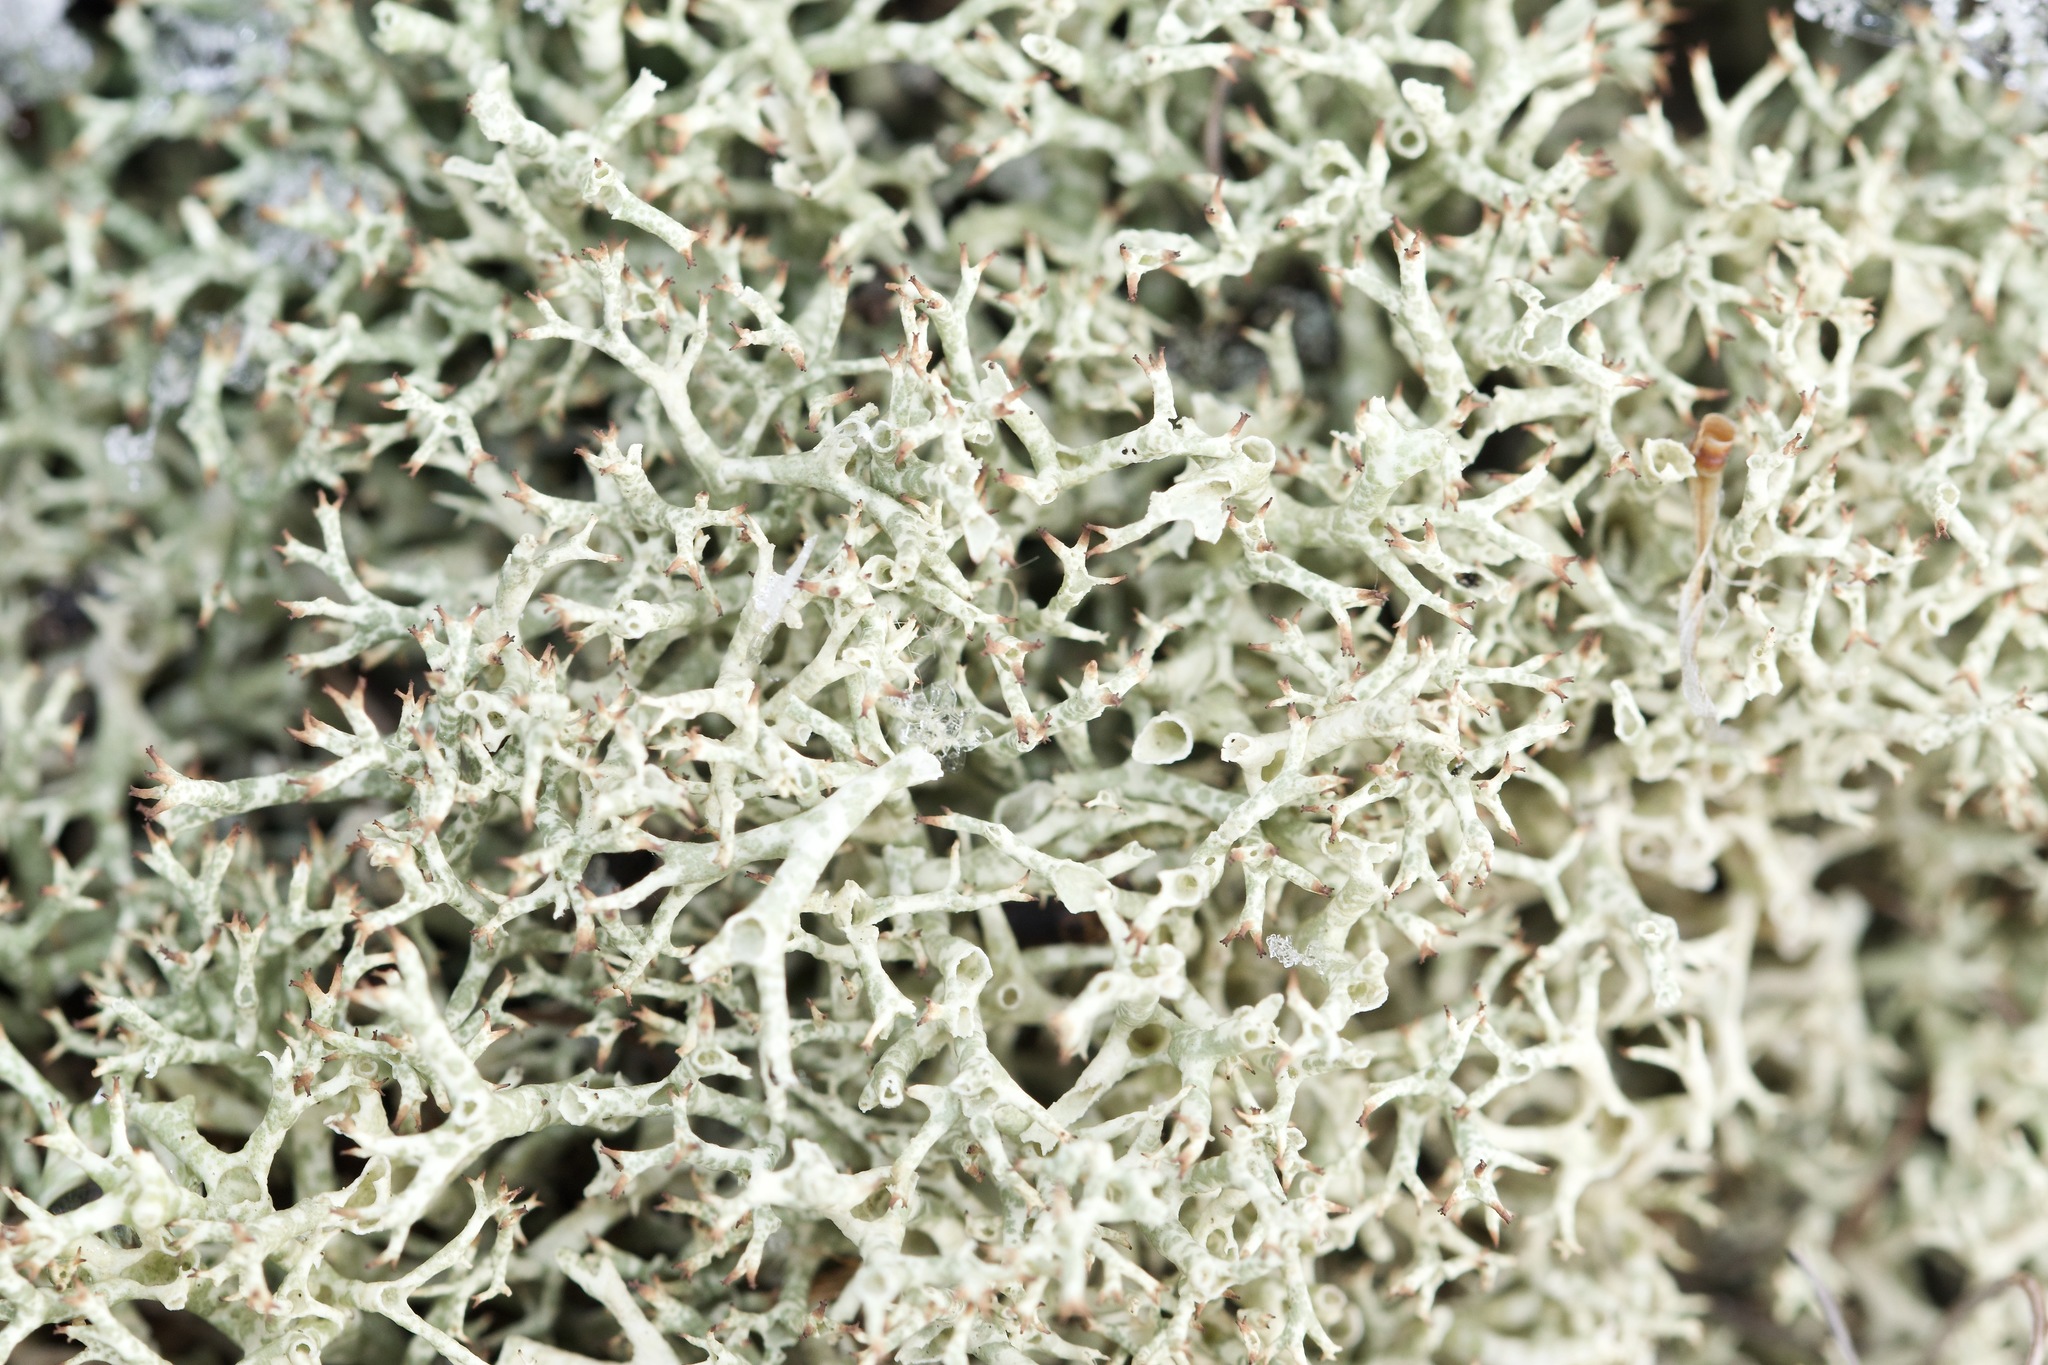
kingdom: Fungi
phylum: Ascomycota
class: Lecanoromycetes
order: Lecanorales
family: Cladoniaceae
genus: Cladonia
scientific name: Cladonia uncialis
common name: Thorn lichen
